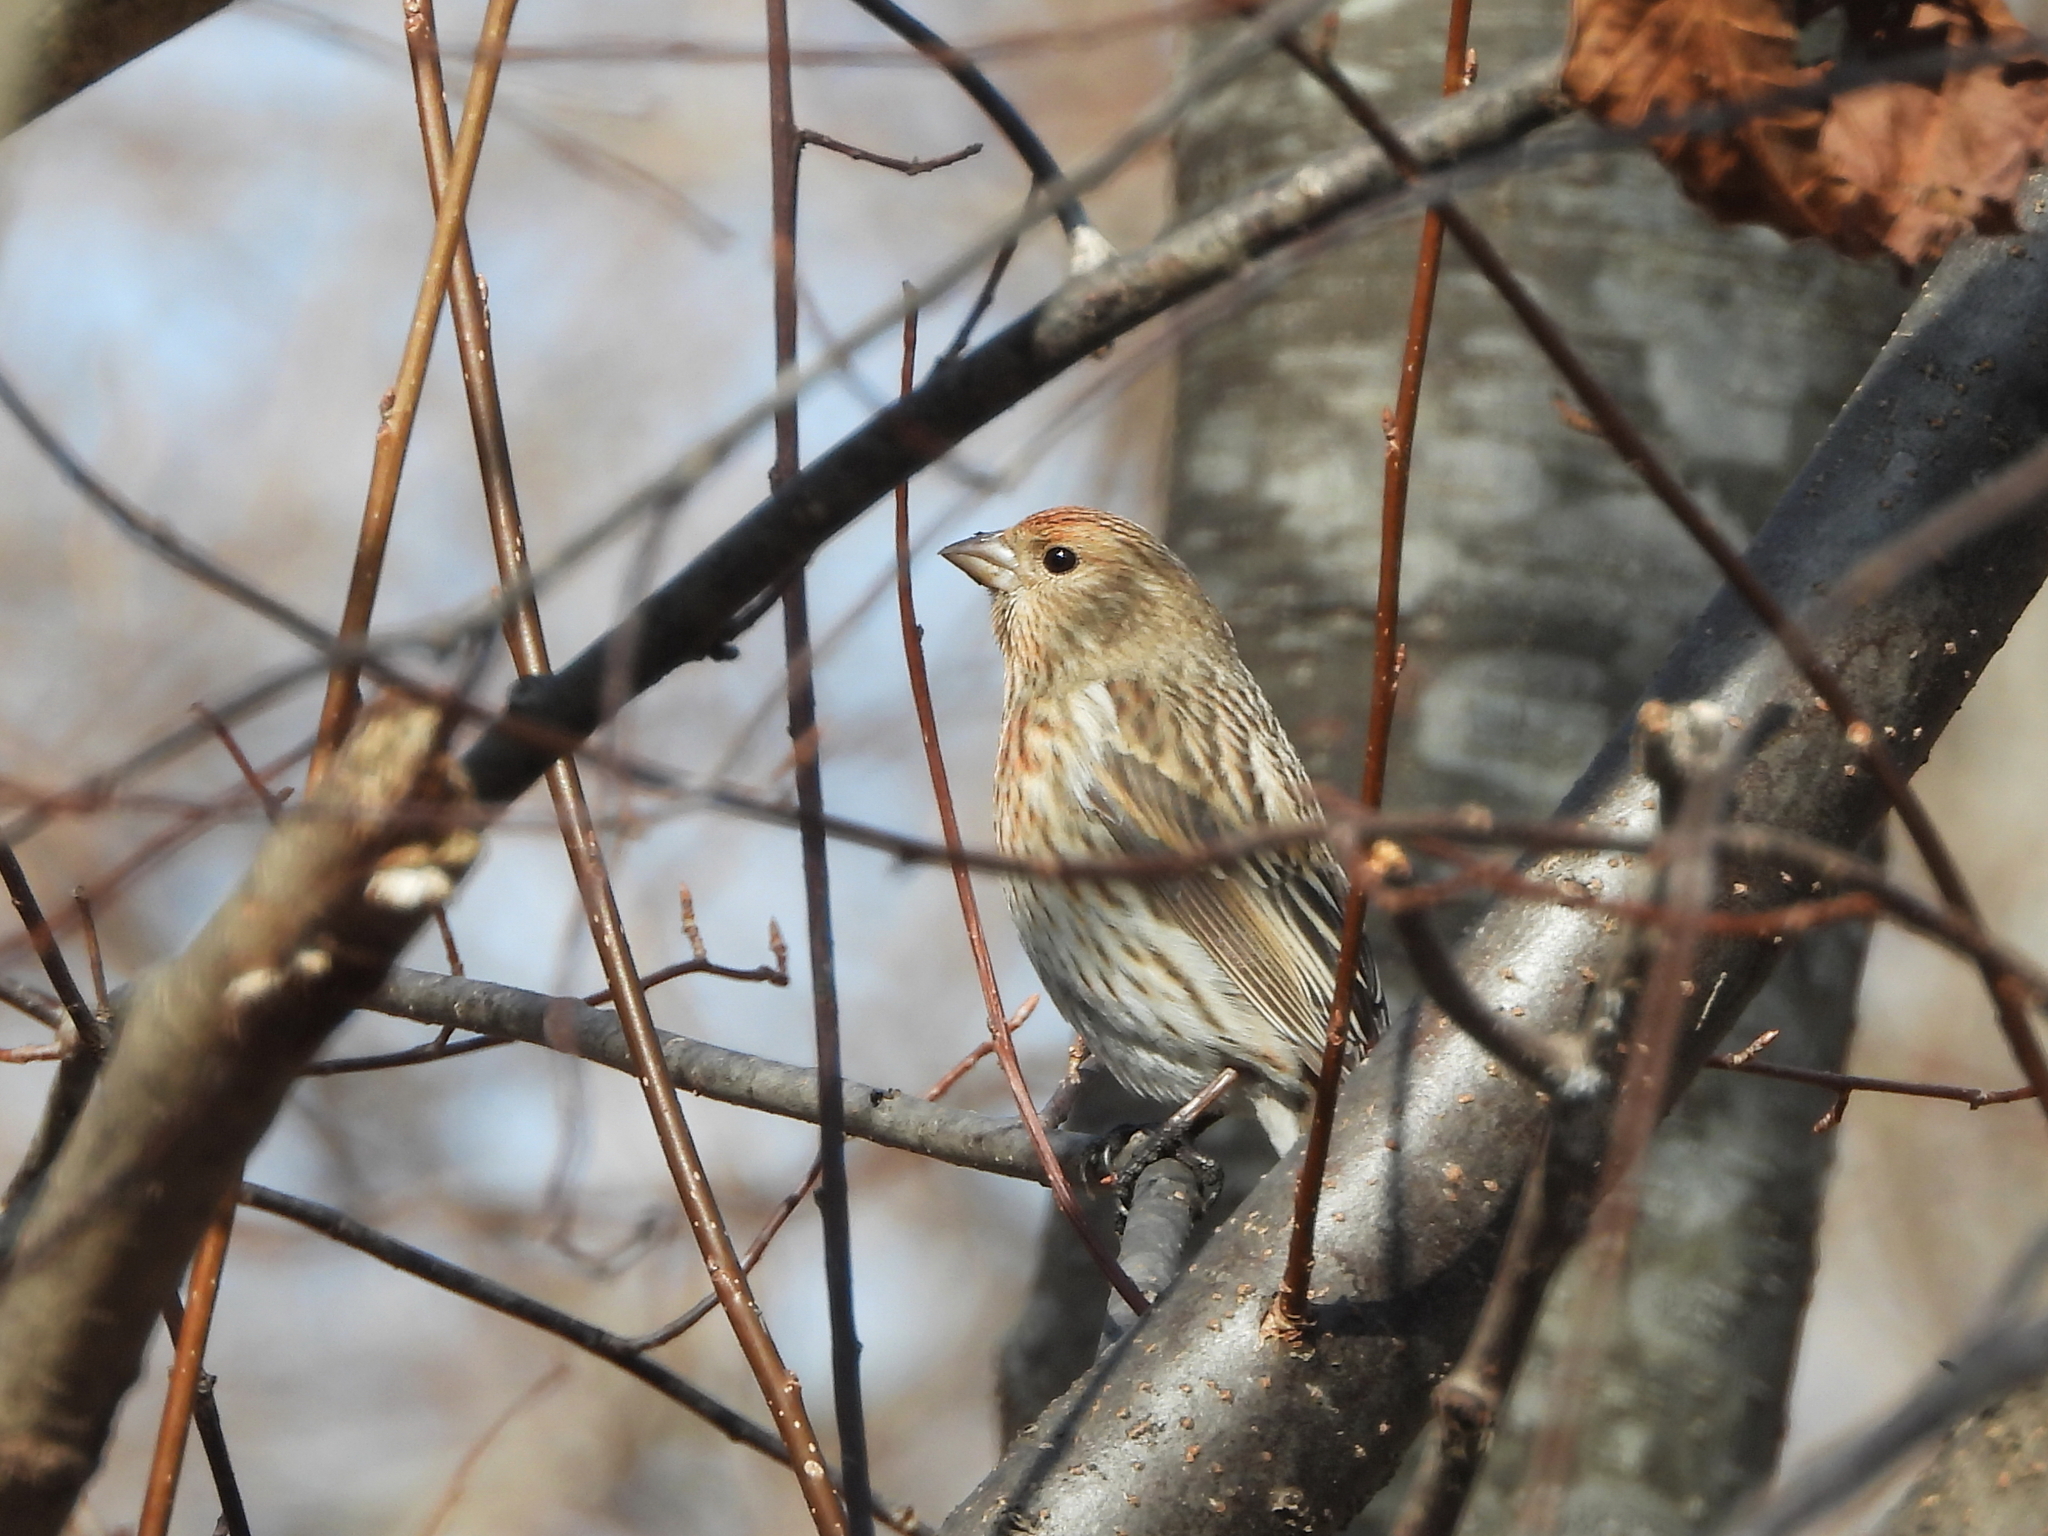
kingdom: Animalia
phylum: Chordata
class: Aves
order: Passeriformes
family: Fringillidae
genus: Carpodacus
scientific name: Carpodacus roseus
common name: Pallas's rosefinch
